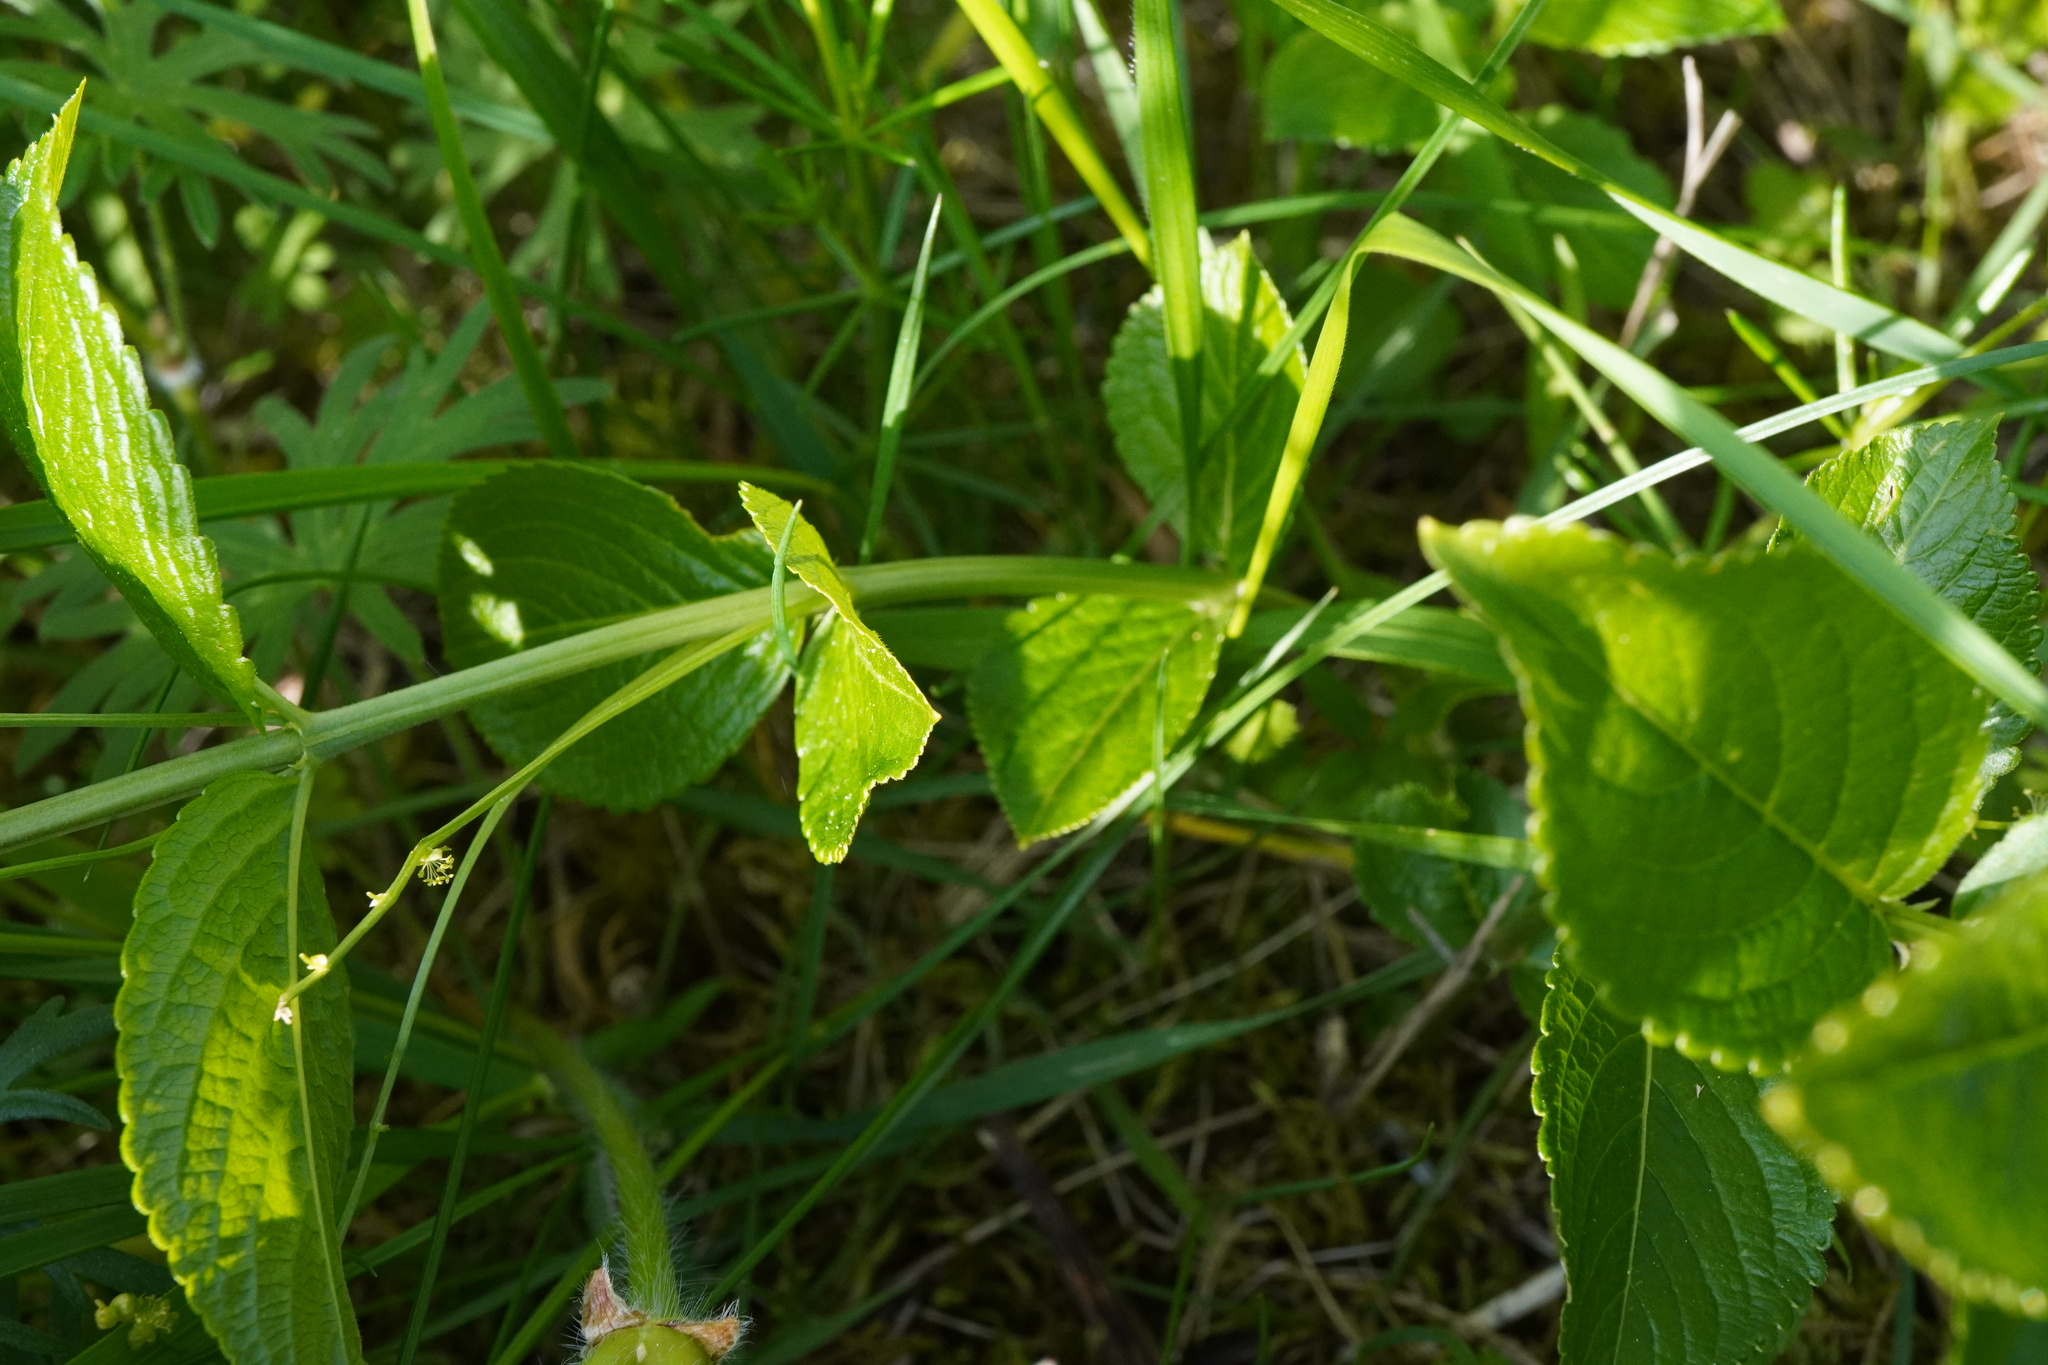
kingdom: Plantae
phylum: Tracheophyta
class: Magnoliopsida
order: Malpighiales
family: Euphorbiaceae
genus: Mercurialis
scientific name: Mercurialis ovata
